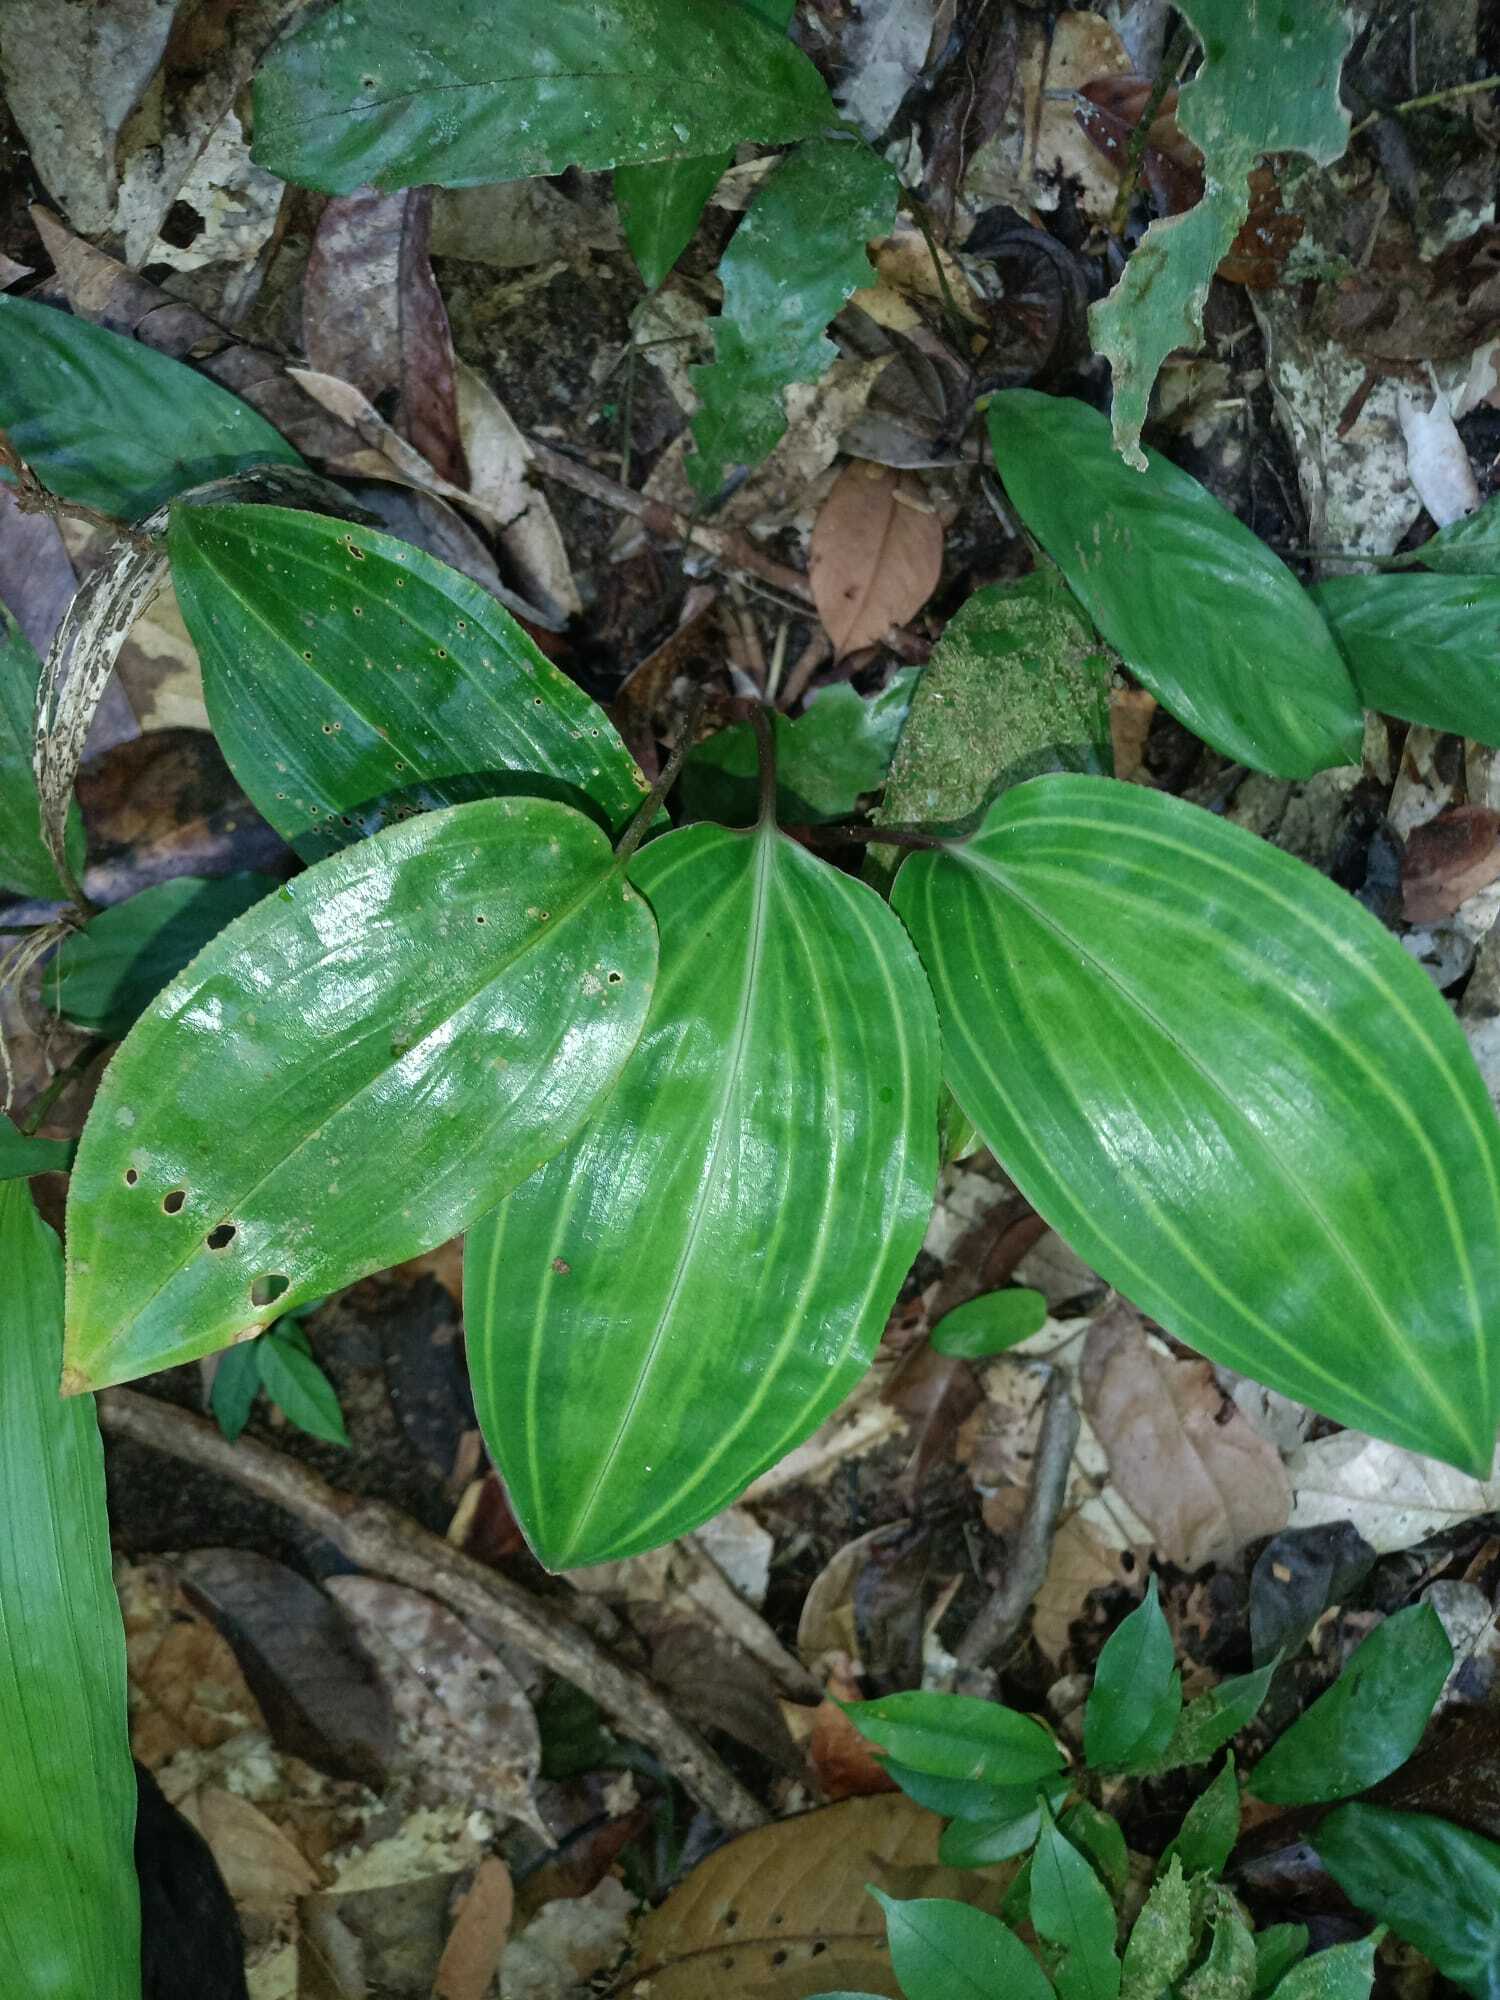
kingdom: Plantae
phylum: Tracheophyta
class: Liliopsida
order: Asparagales
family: Orchidaceae
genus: Prescottia
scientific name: Prescottia stachyodes
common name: Mountain prescott orchid
